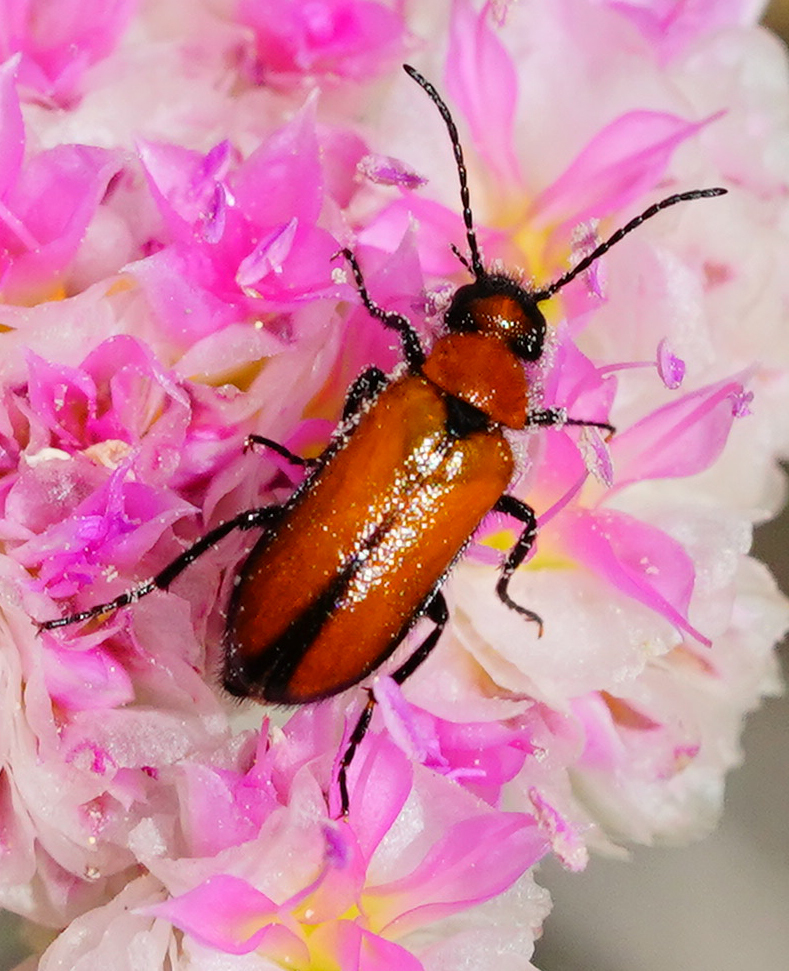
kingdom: Animalia
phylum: Arthropoda
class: Insecta
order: Coleoptera
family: Meloidae
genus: Nemognatha
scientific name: Nemognatha scutellaris
